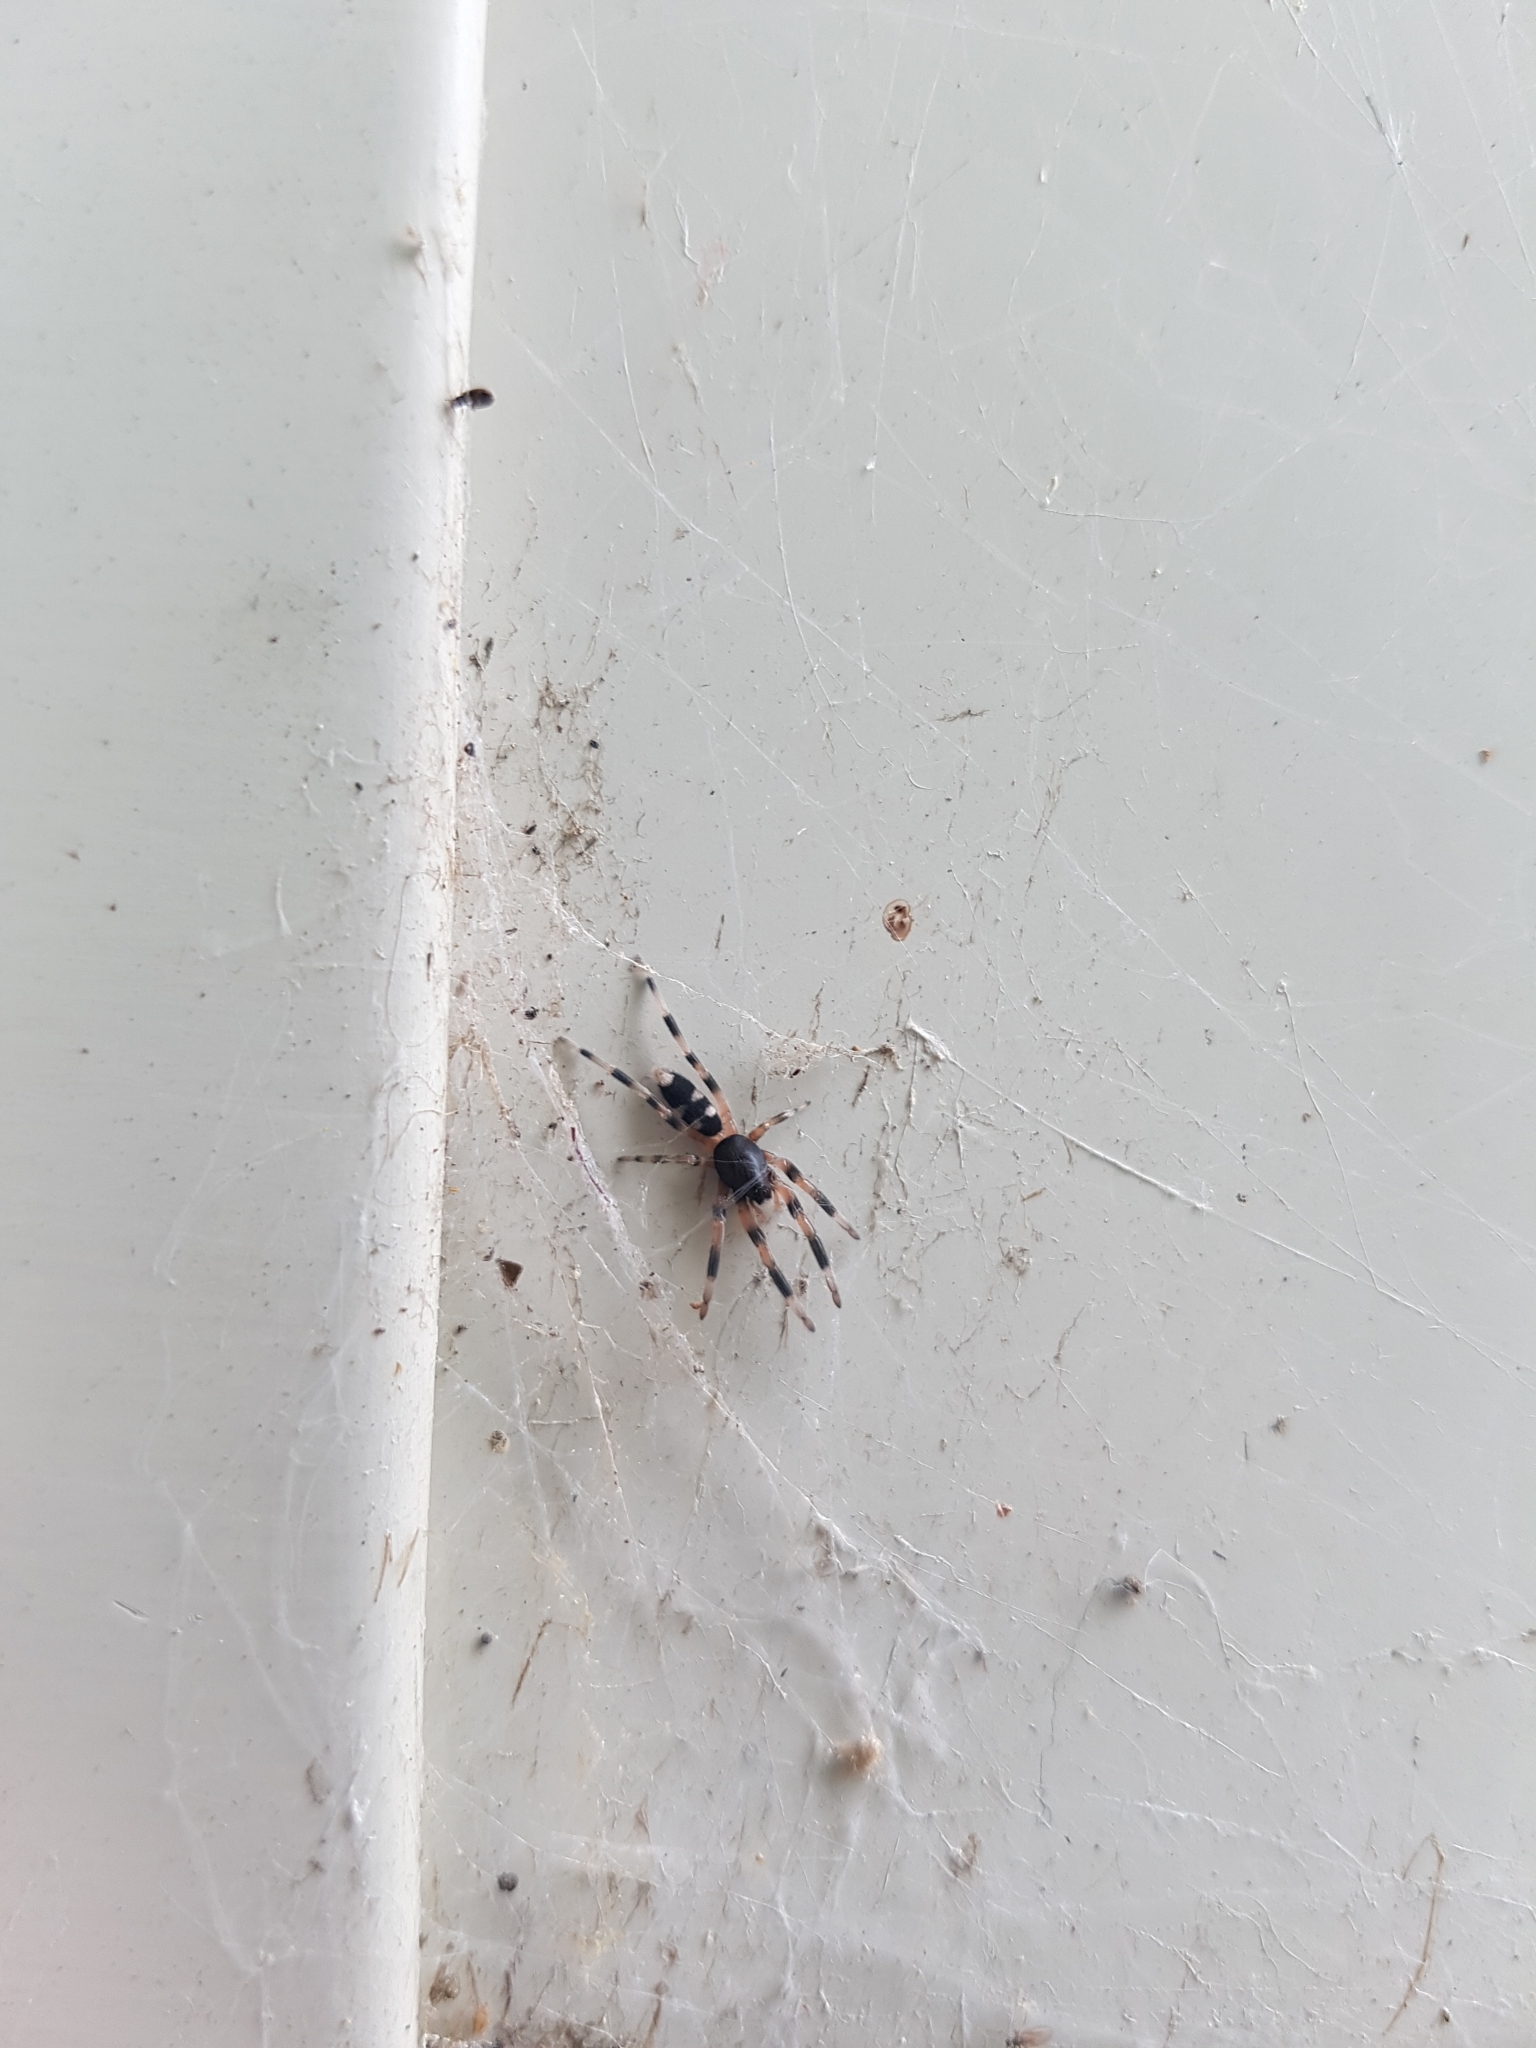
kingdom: Animalia
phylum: Arthropoda
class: Arachnida
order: Araneae
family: Lamponidae
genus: Lampona
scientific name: Lampona murina
